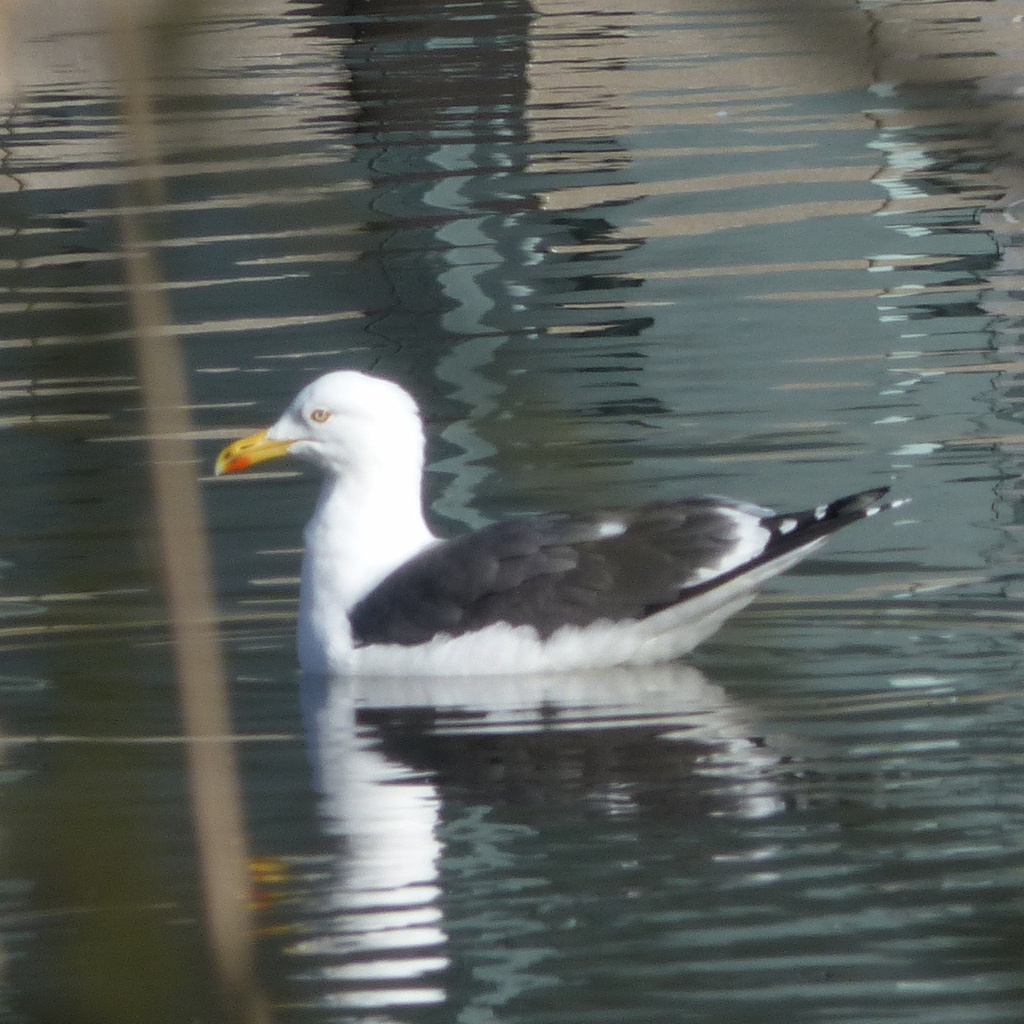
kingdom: Animalia
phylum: Chordata
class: Aves
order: Charadriiformes
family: Laridae
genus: Larus
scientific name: Larus fuscus
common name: Lesser black-backed gull
